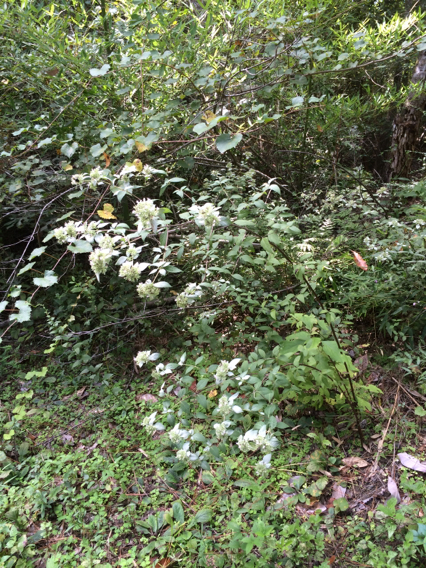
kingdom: Plantae
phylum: Tracheophyta
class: Magnoliopsida
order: Lamiales
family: Lamiaceae
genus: Pycnanthemum
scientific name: Pycnanthemum albescens
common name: White-leaf mountain-mint
